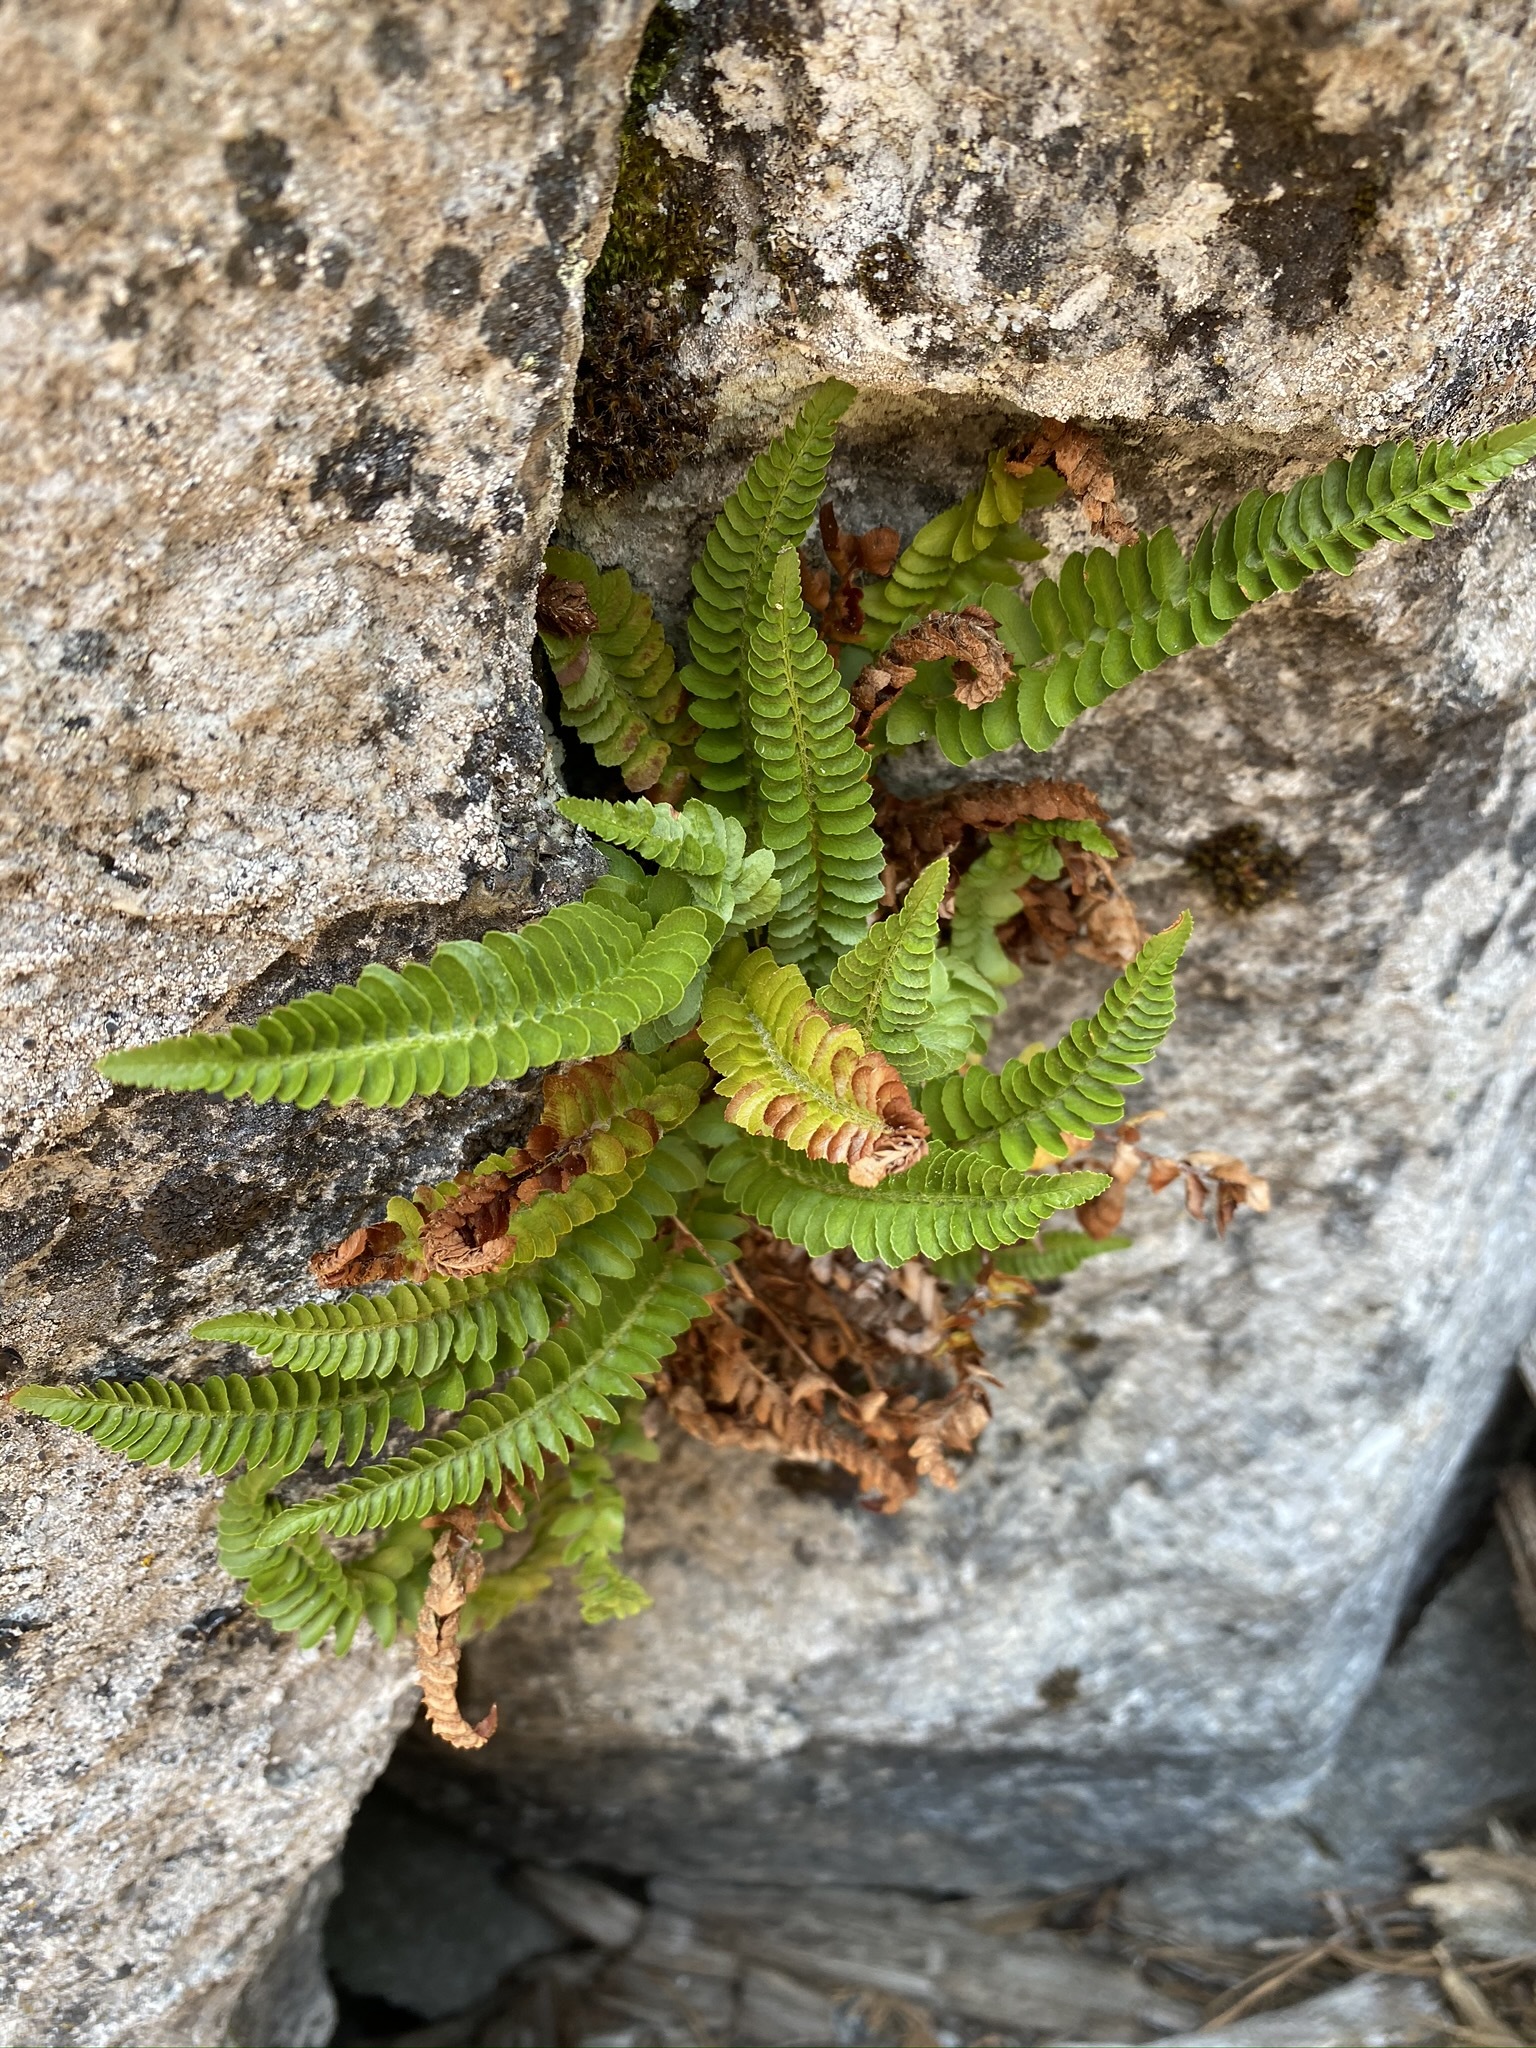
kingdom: Plantae
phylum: Tracheophyta
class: Polypodiopsida
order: Polypodiales
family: Dryopteridaceae
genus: Polystichum
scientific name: Polystichum scopulinum
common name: Eaton's shield fern
